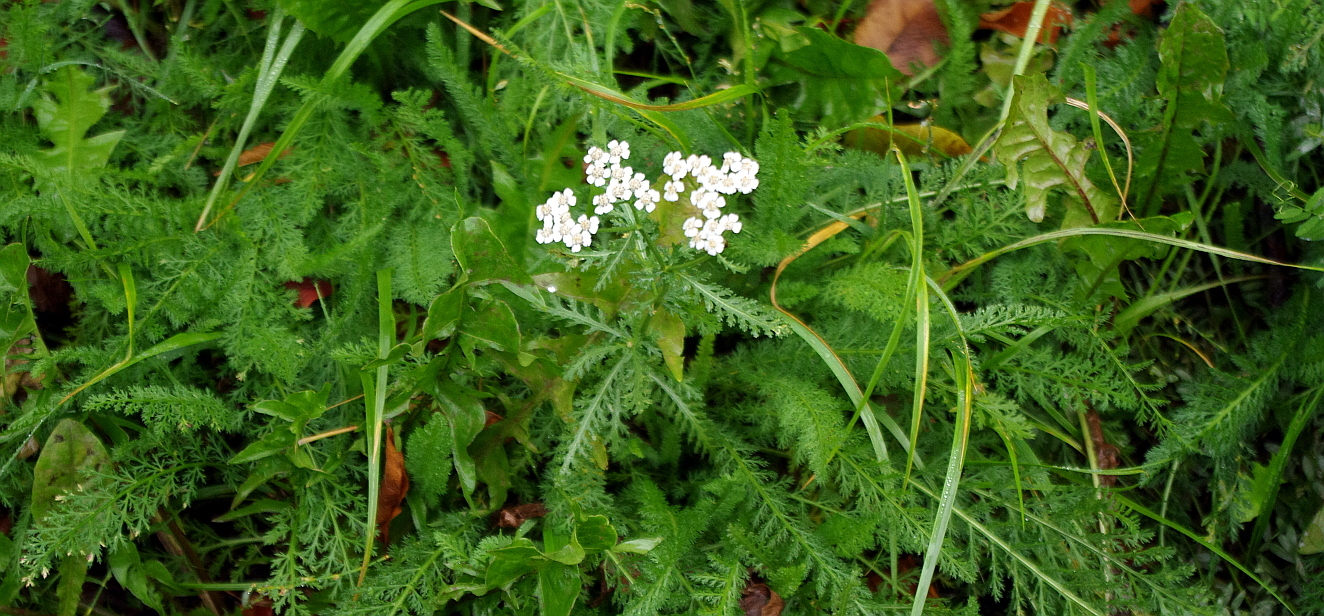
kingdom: Plantae
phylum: Tracheophyta
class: Magnoliopsida
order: Asterales
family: Asteraceae
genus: Achillea
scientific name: Achillea millefolium
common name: Yarrow
